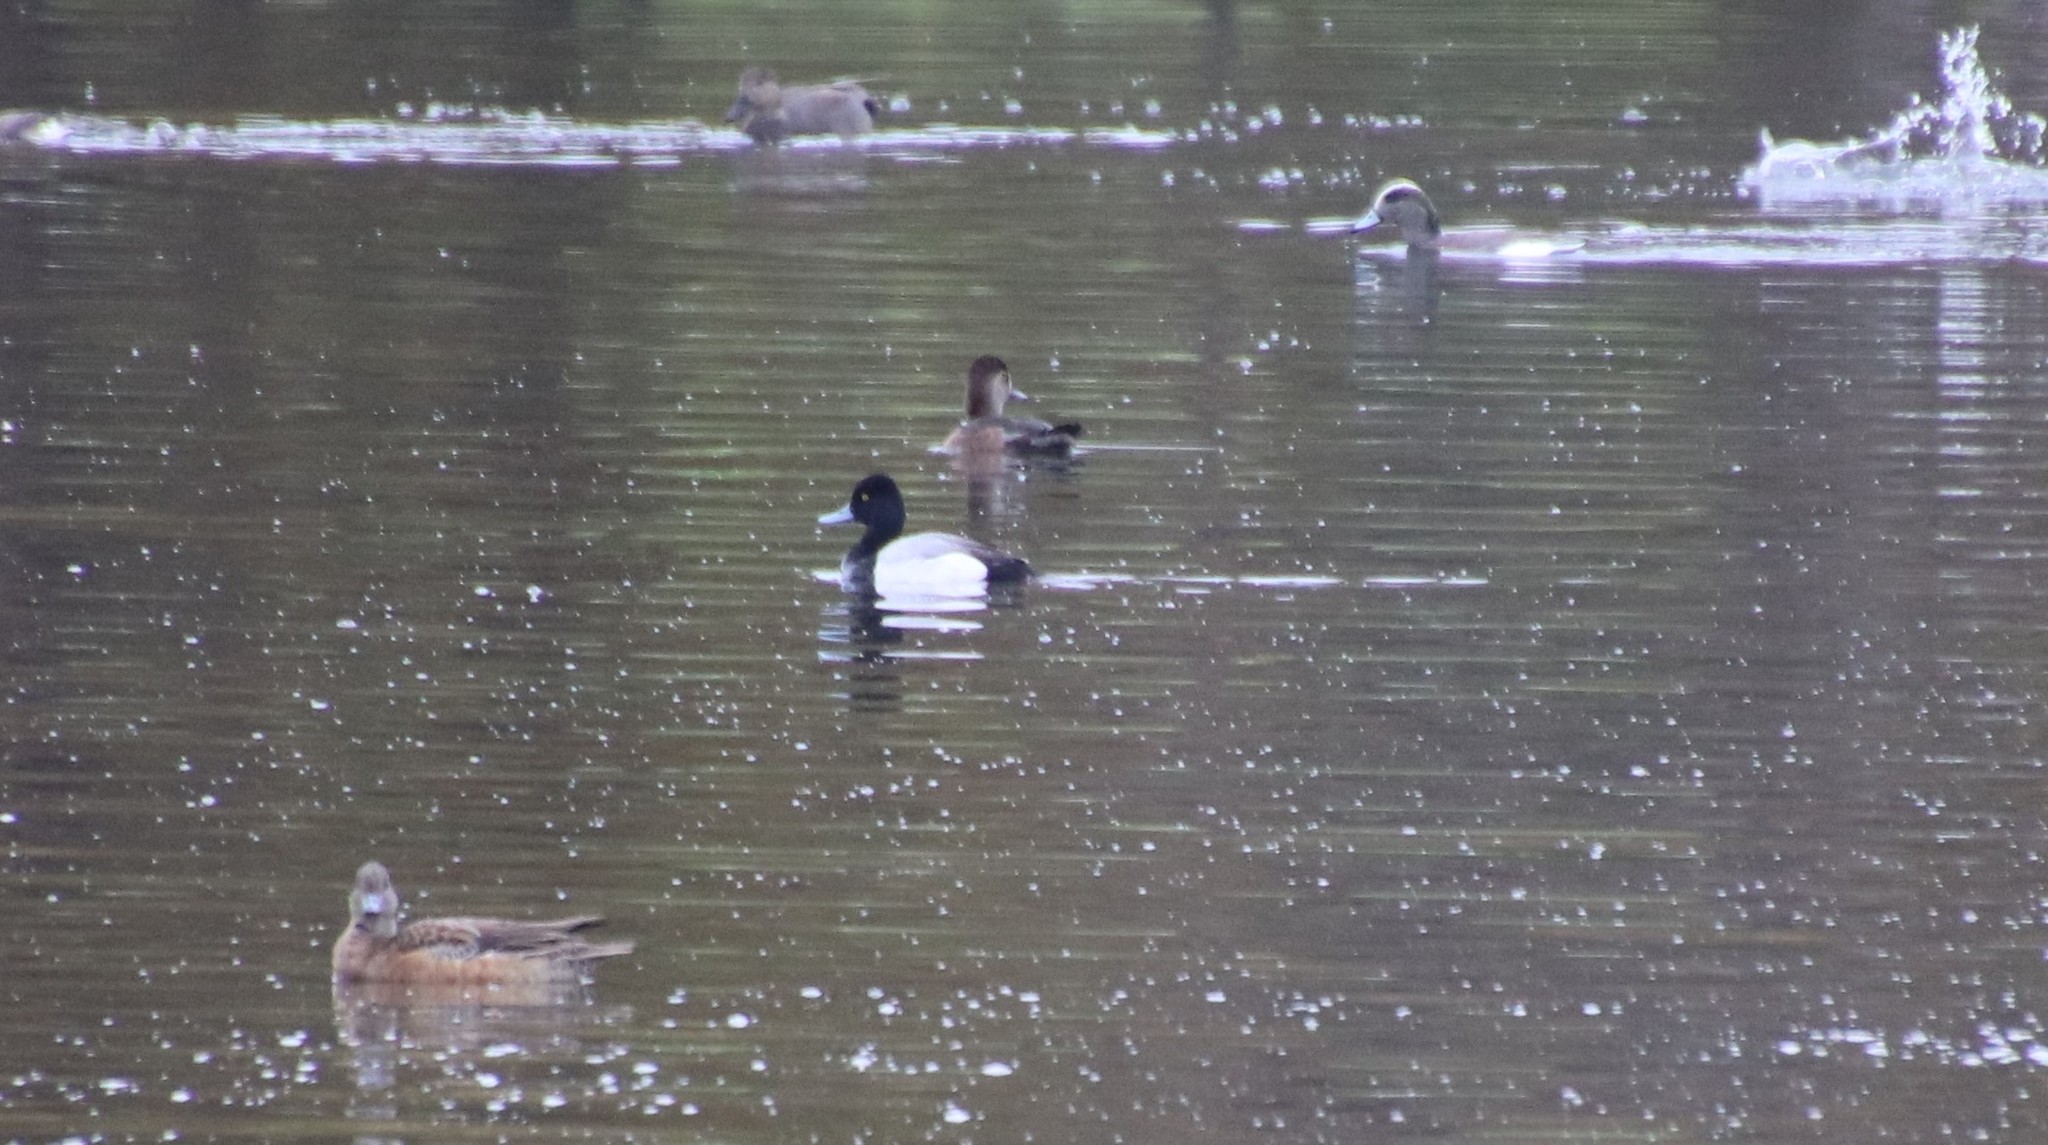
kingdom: Animalia
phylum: Chordata
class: Aves
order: Anseriformes
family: Anatidae
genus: Aythya
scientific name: Aythya affinis
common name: Lesser scaup
